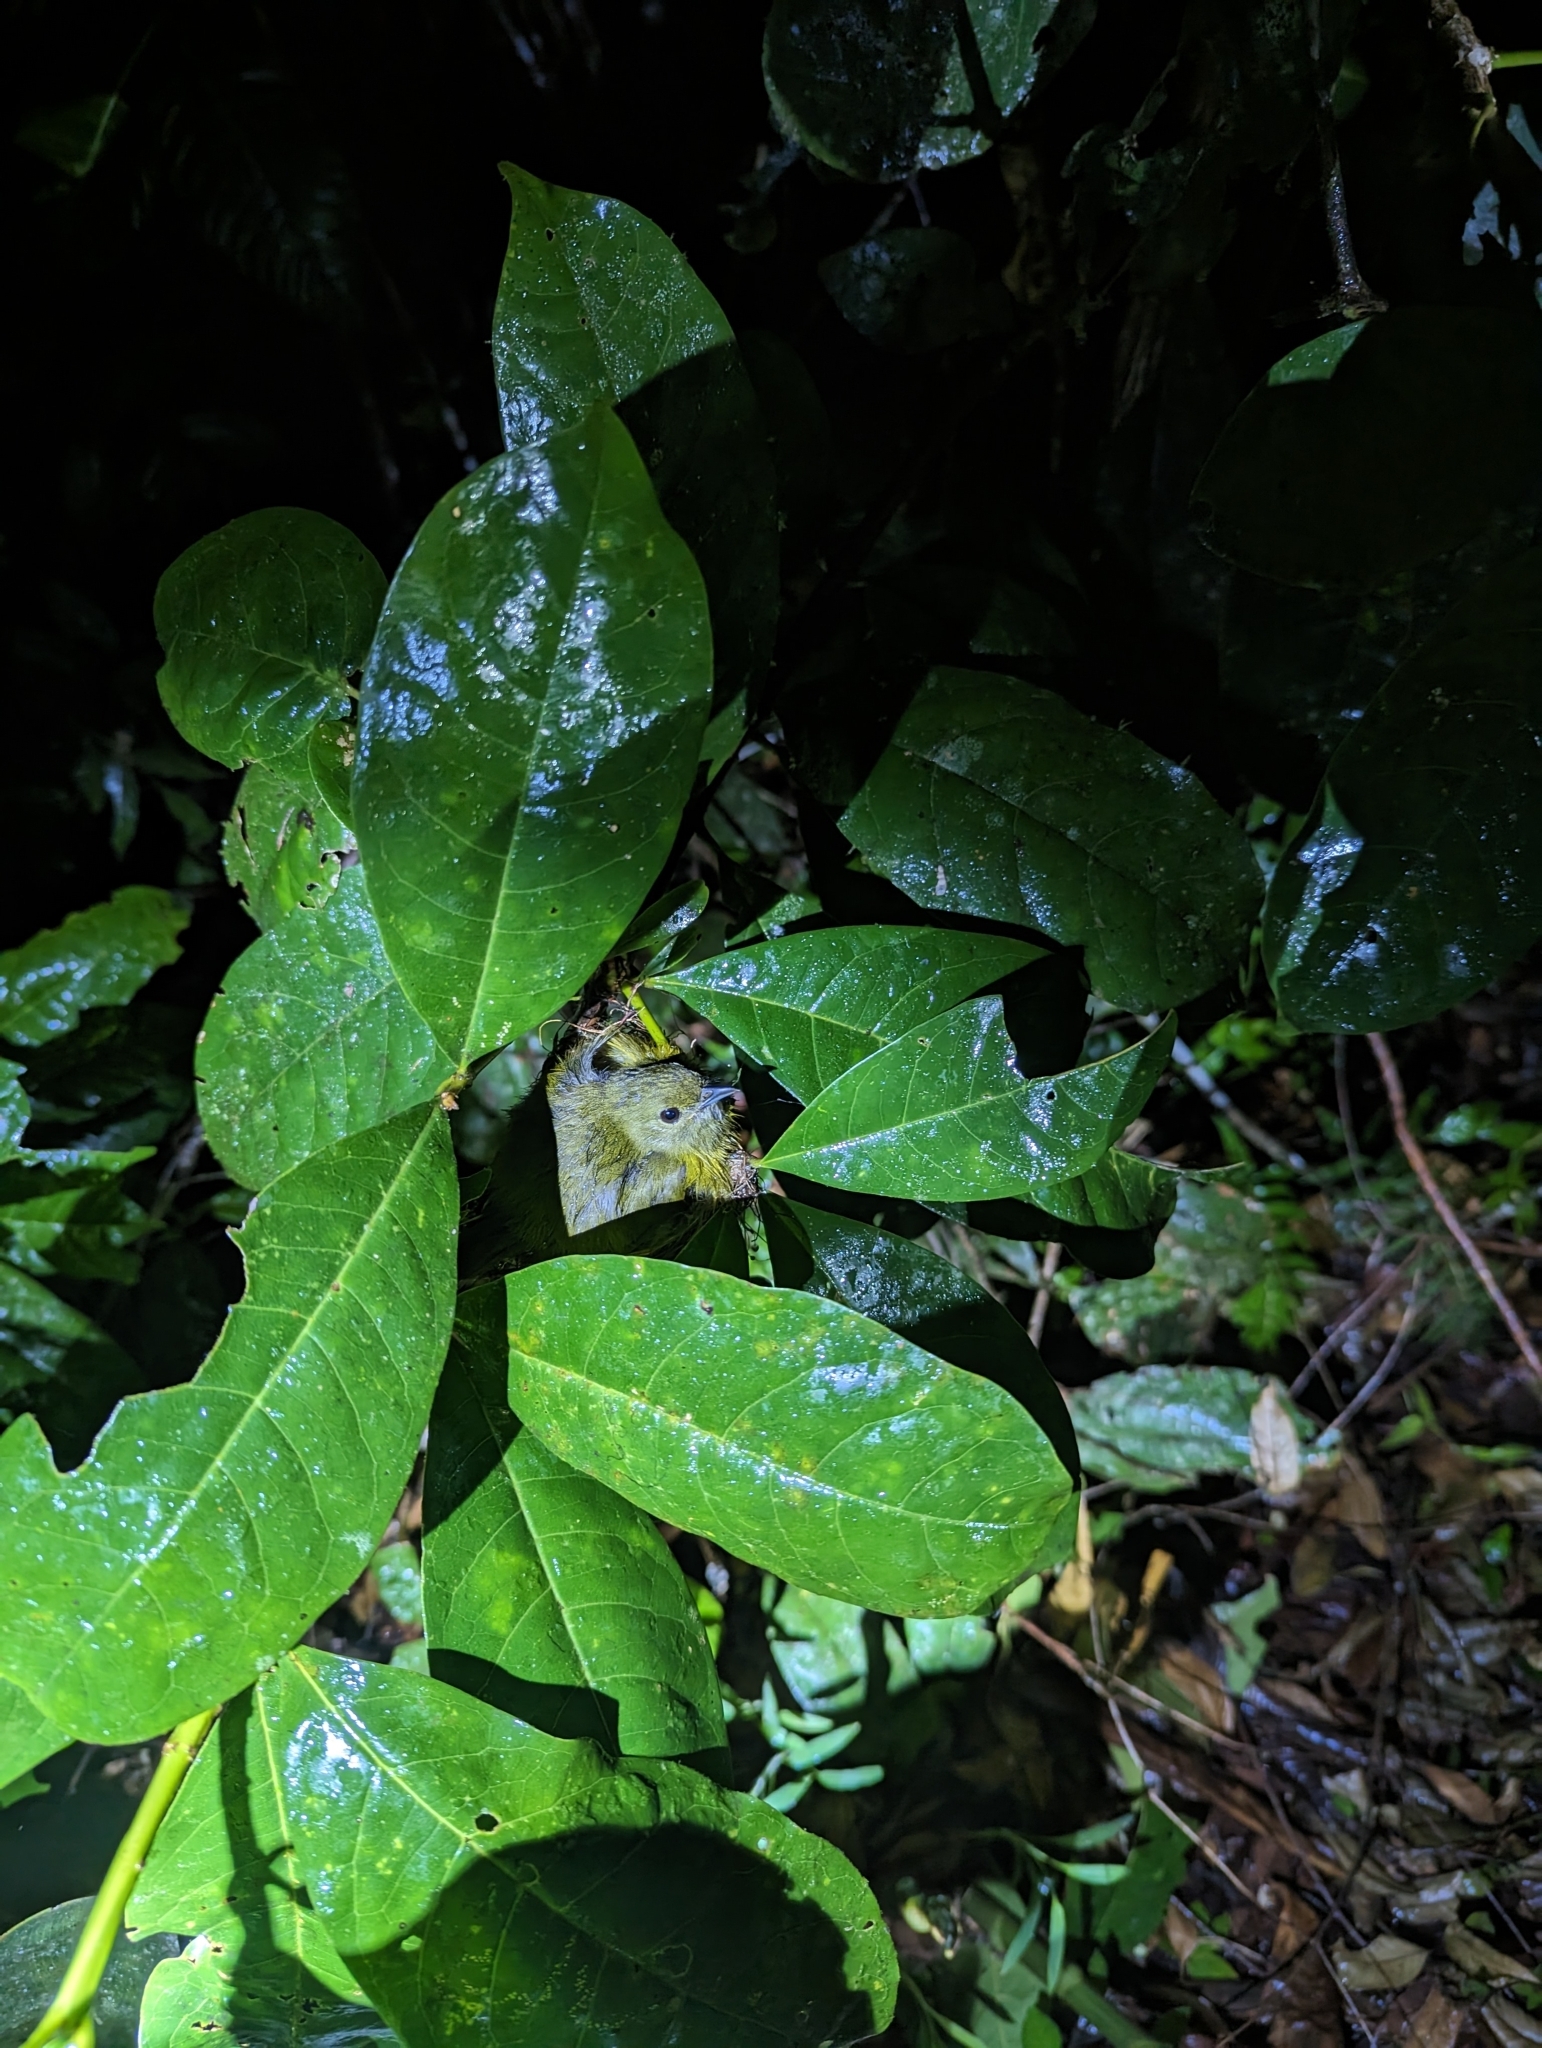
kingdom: Animalia
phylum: Chordata
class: Aves
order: Passeriformes
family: Pipridae
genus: Manacus
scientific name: Manacus candei
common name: White-collared manakin
